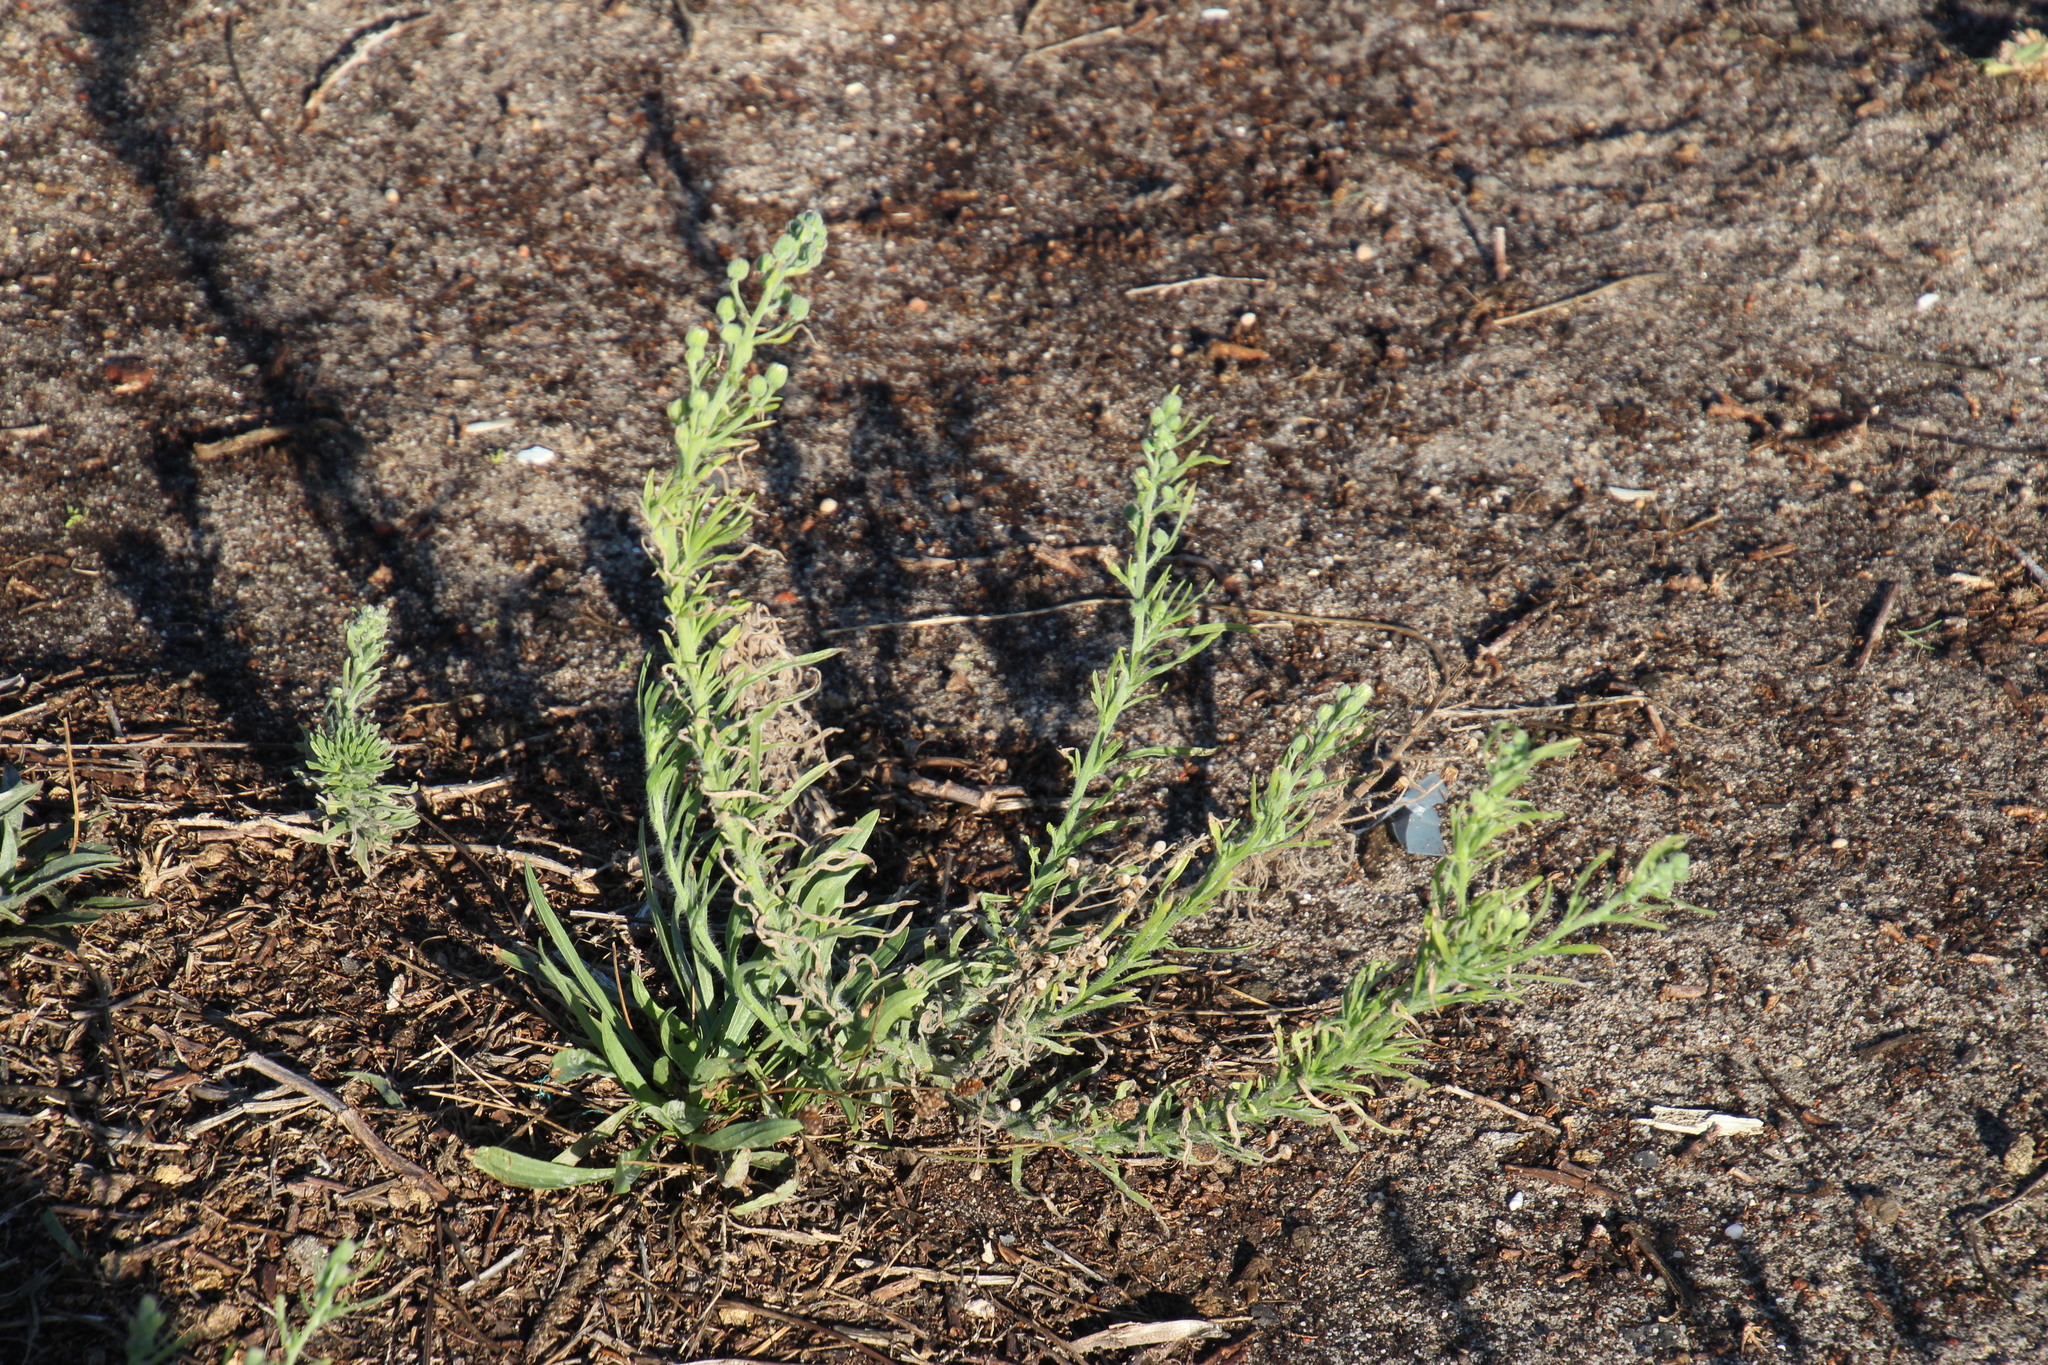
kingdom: Plantae
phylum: Tracheophyta
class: Magnoliopsida
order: Asterales
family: Asteraceae
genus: Erigeron
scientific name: Erigeron bonariensis
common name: Argentine fleabane
